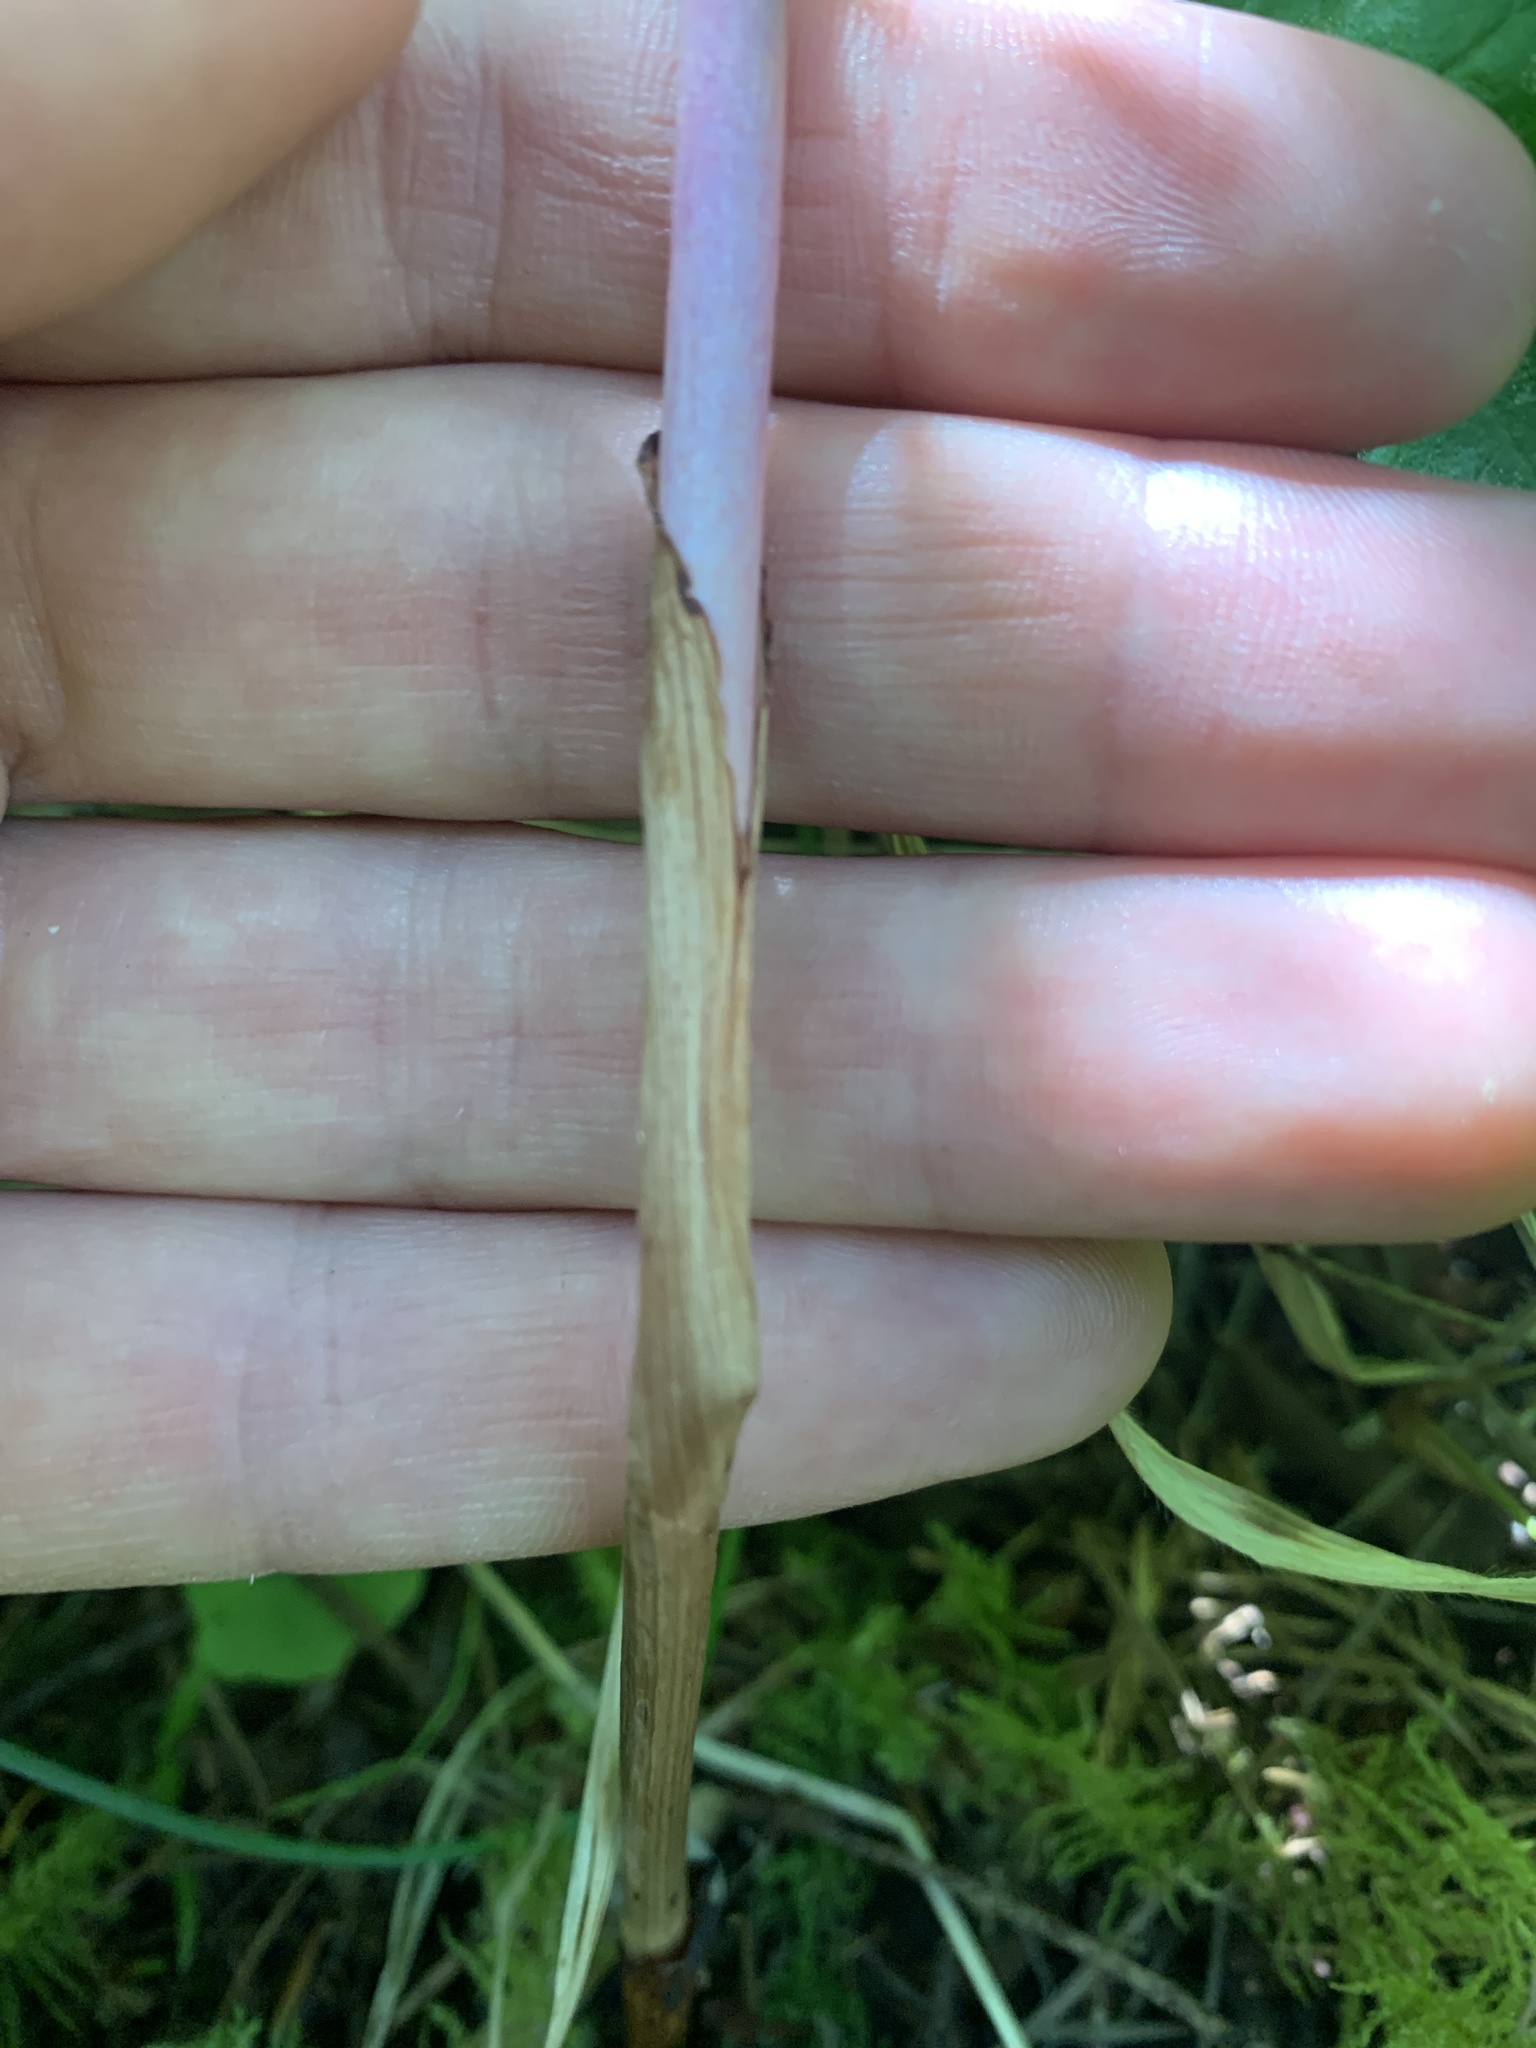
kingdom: Plantae
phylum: Tracheophyta
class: Liliopsida
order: Asparagales
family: Orchidaceae
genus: Corallorhiza
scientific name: Corallorhiza striata
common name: Hooded coralroot
